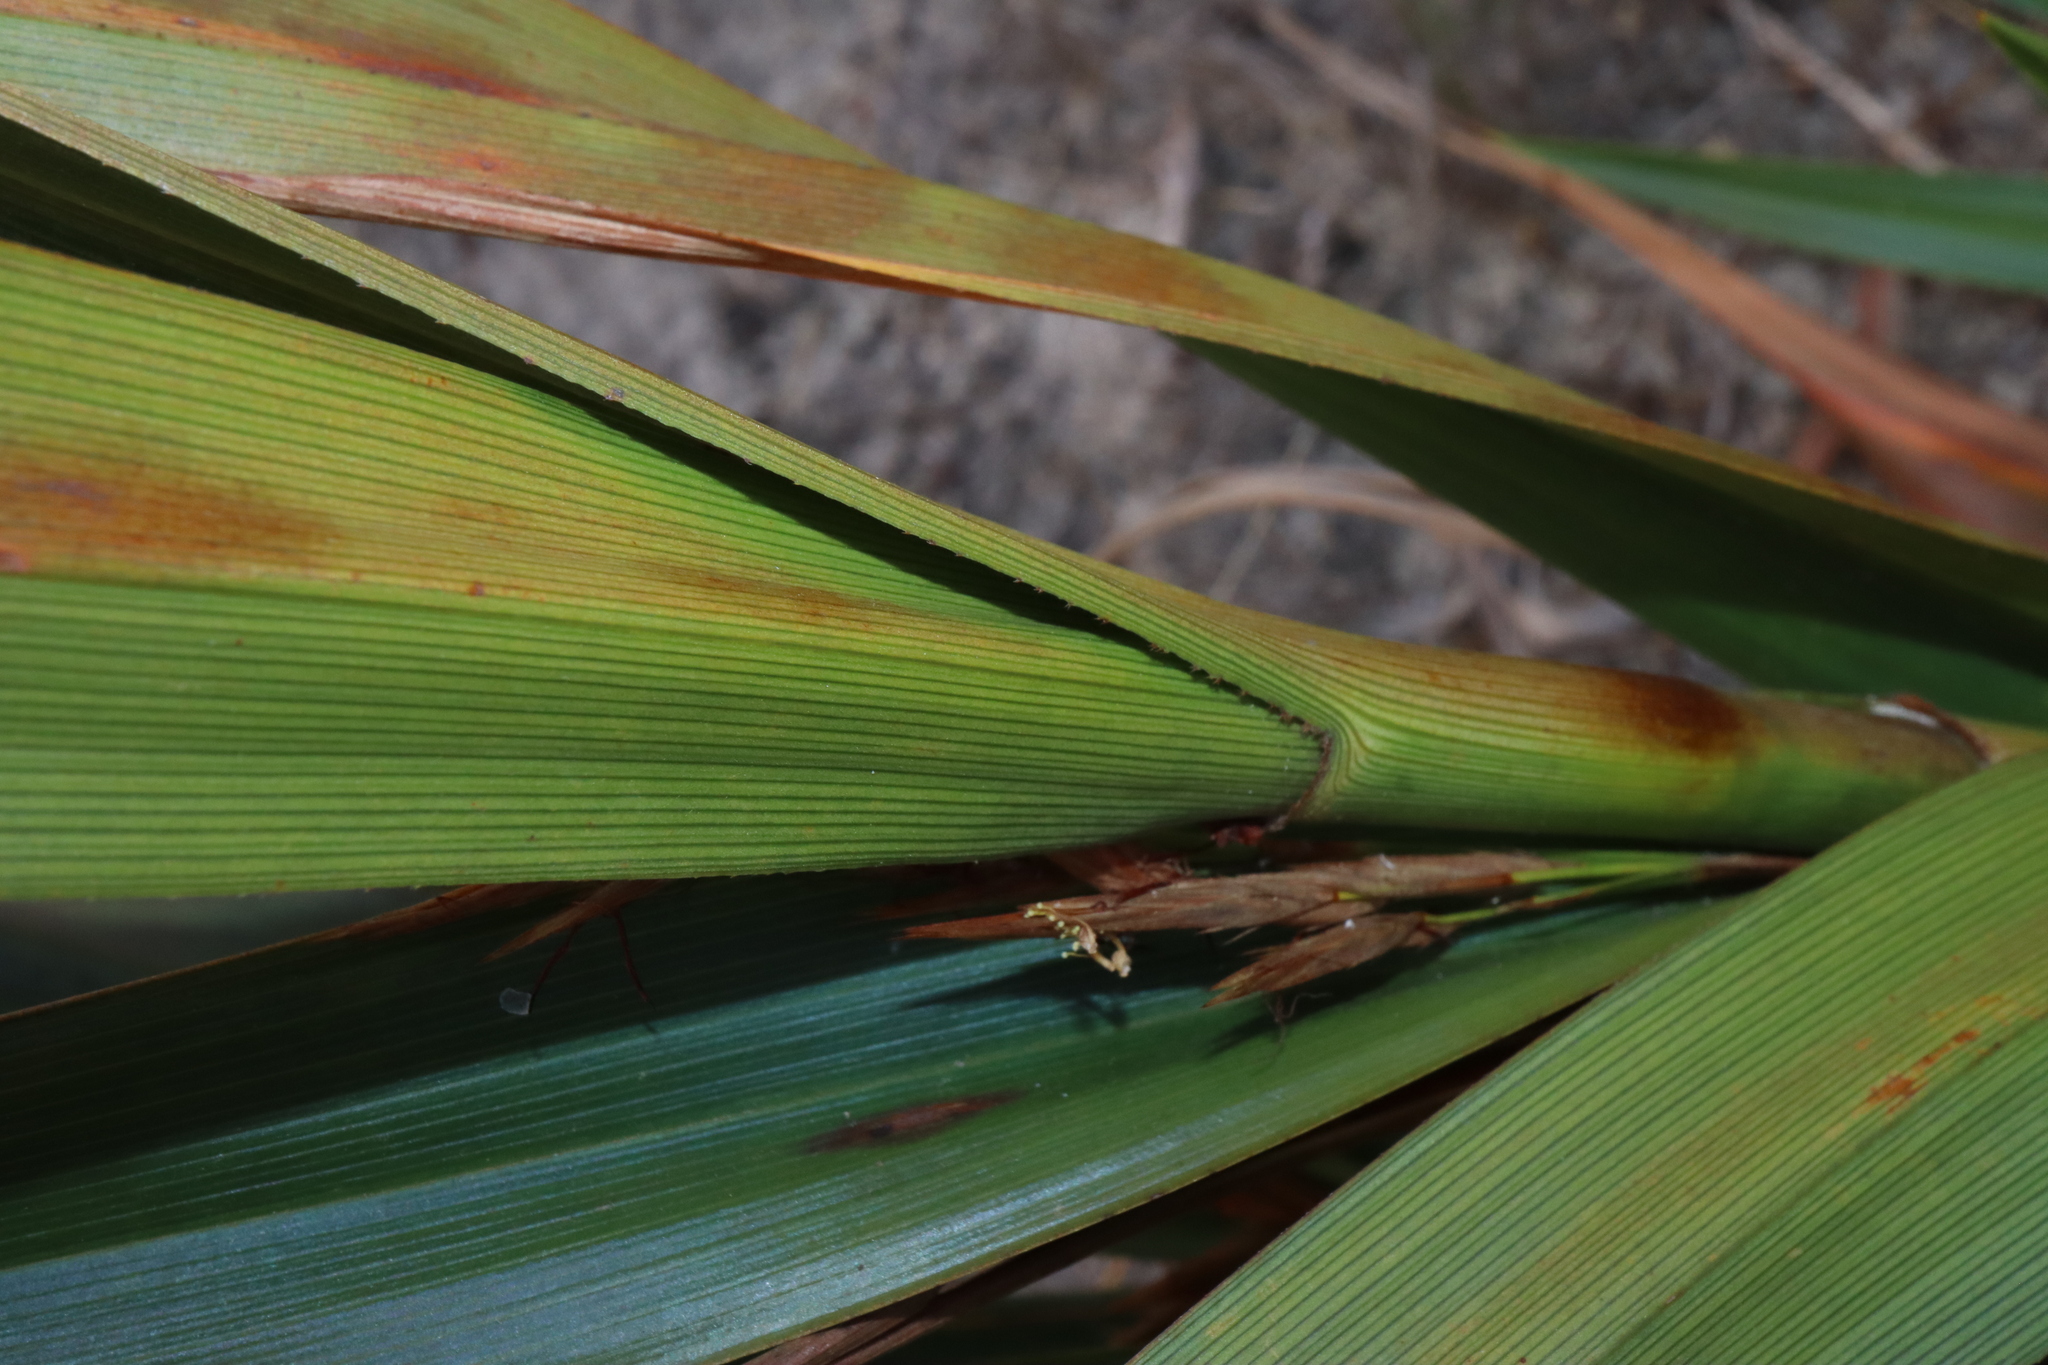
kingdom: Plantae
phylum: Tracheophyta
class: Liliopsida
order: Poales
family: Cyperaceae
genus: Schoenus
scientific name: Schoenus grandiflorus
